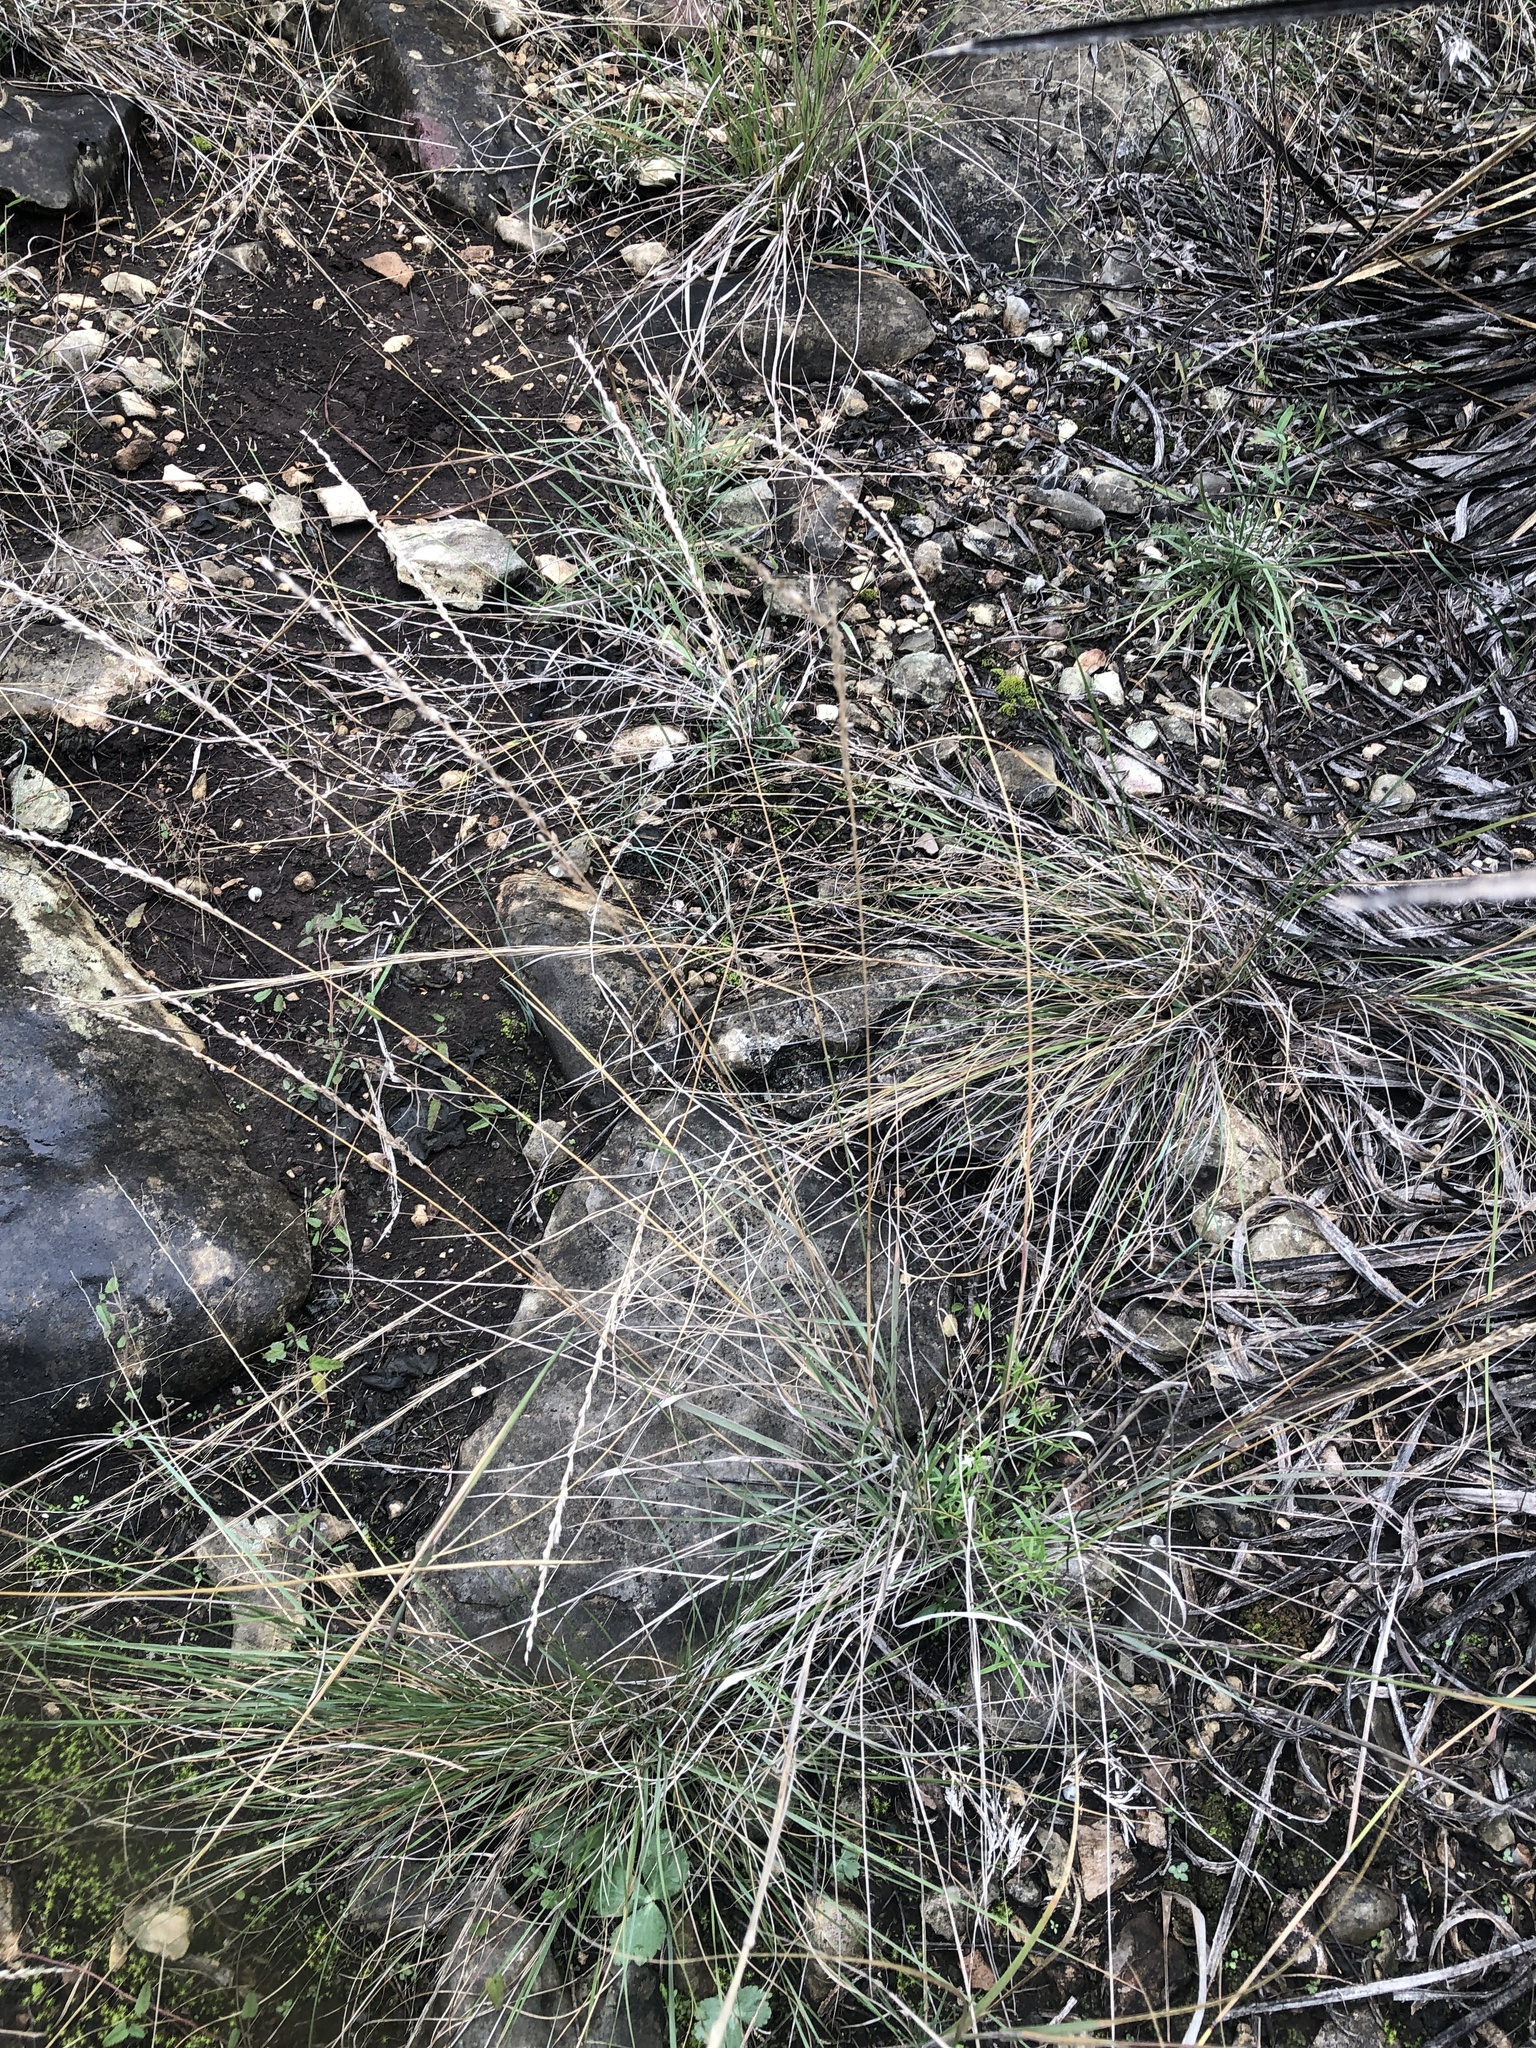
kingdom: Plantae
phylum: Tracheophyta
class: Liliopsida
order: Poales
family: Poaceae
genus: Tridentopsis
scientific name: Tridentopsis mutica
